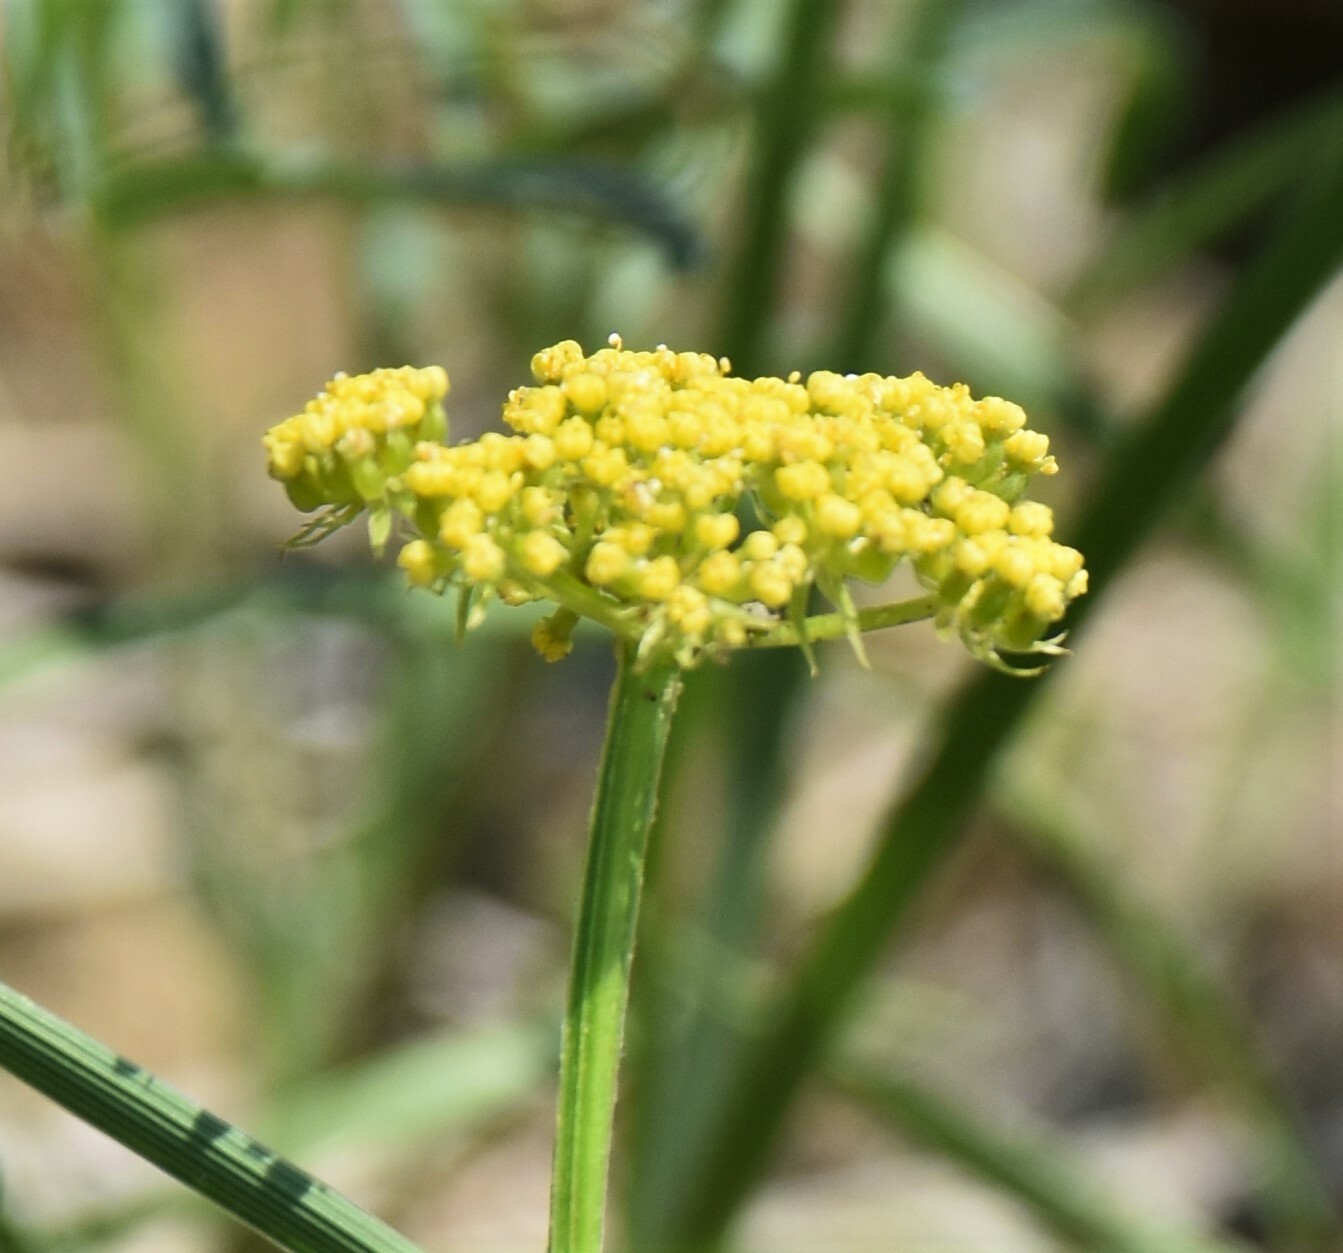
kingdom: Plantae
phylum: Tracheophyta
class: Magnoliopsida
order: Apiales
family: Apiaceae
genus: Musineon
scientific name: Musineon divaricatum
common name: Plains musineon
